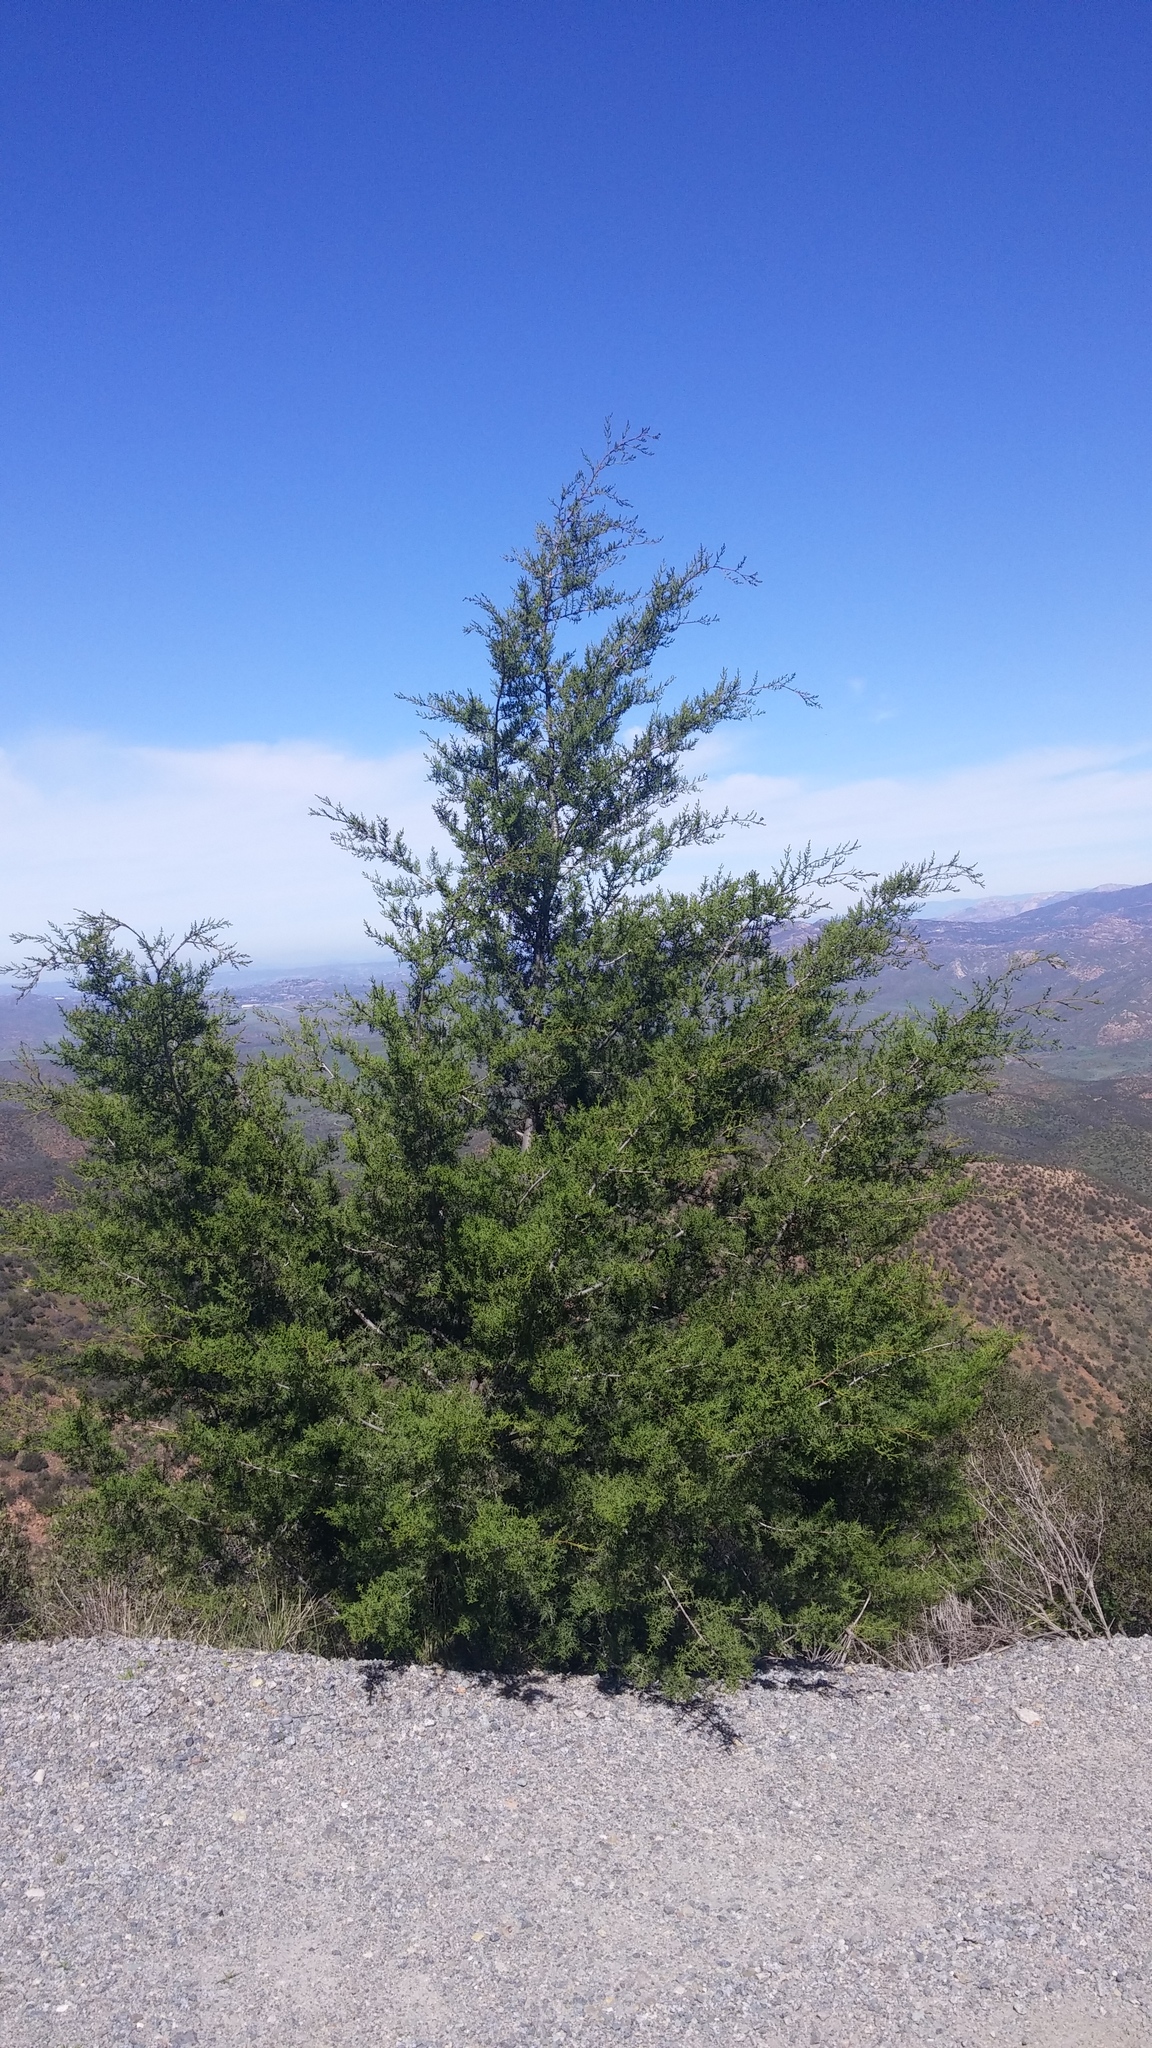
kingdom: Plantae
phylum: Tracheophyta
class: Pinopsida
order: Pinales
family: Cupressaceae
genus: Cupressus
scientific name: Cupressus guadalupensis
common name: Forbes cypress
